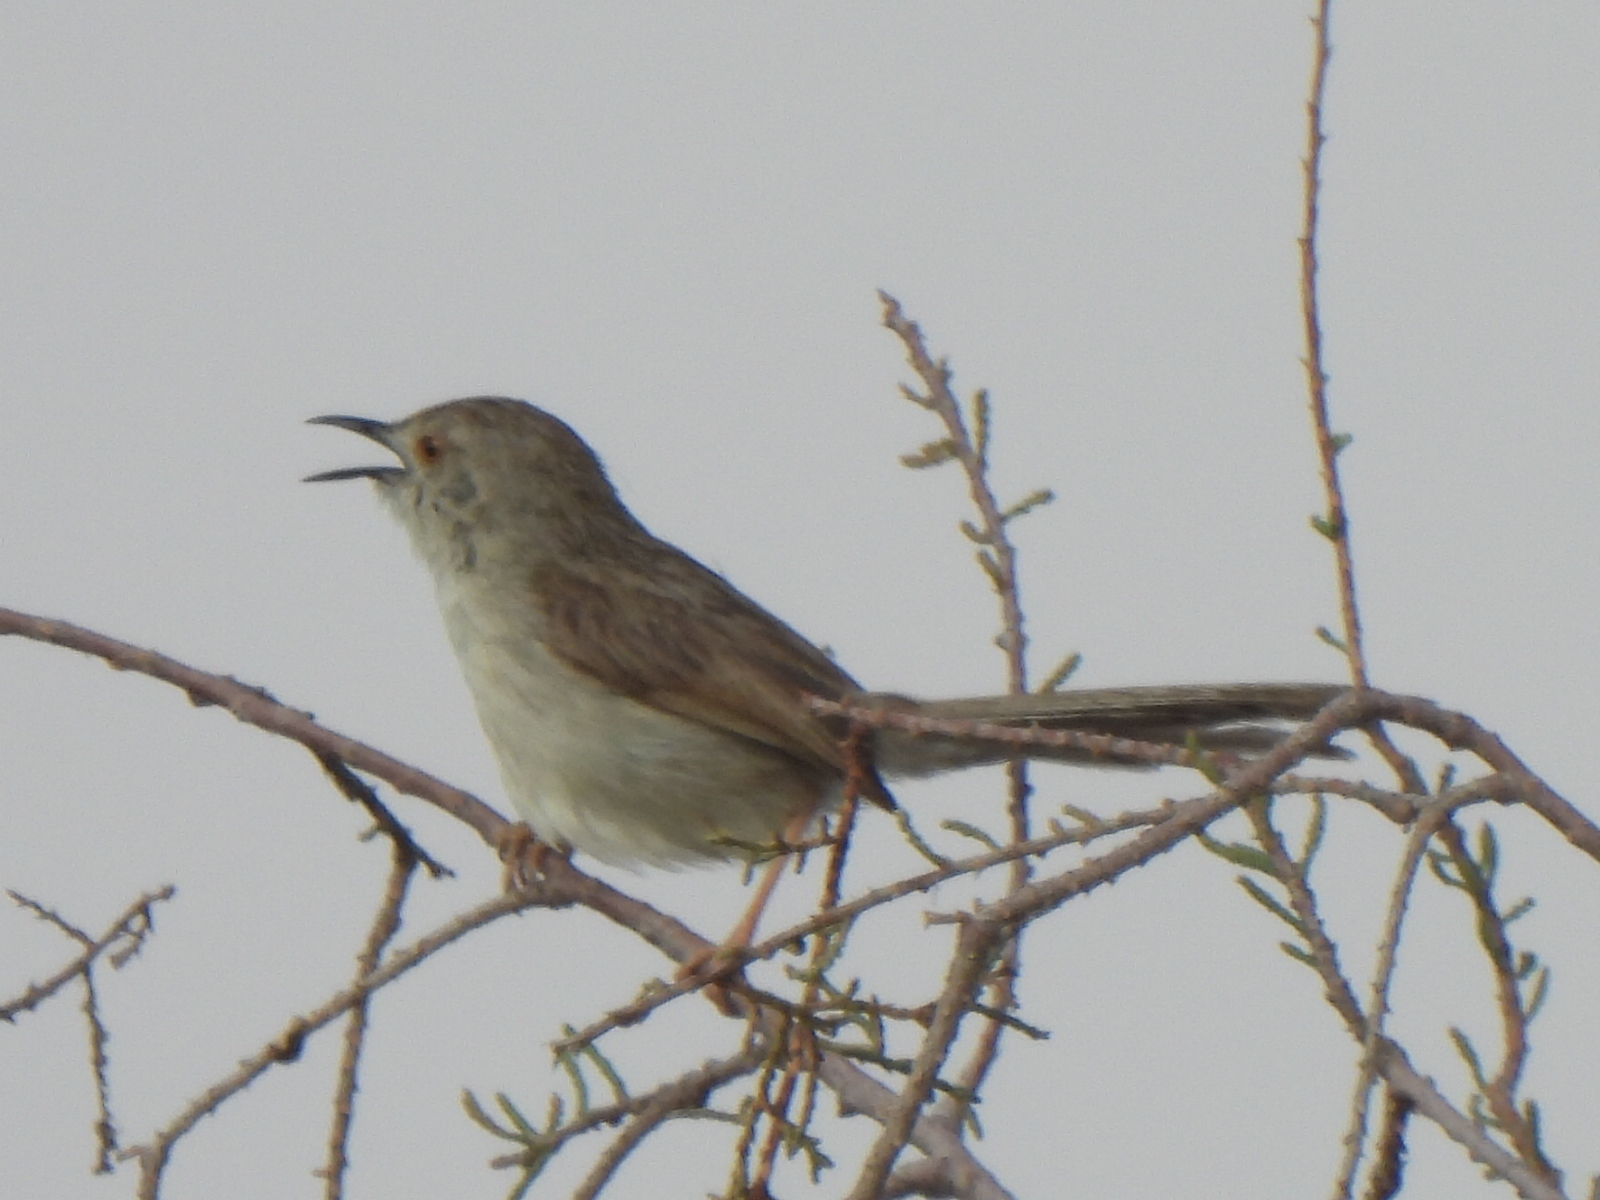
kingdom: Animalia
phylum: Chordata
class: Aves
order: Passeriformes
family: Cisticolidae
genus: Prinia
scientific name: Prinia gracilis
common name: Graceful prinia
